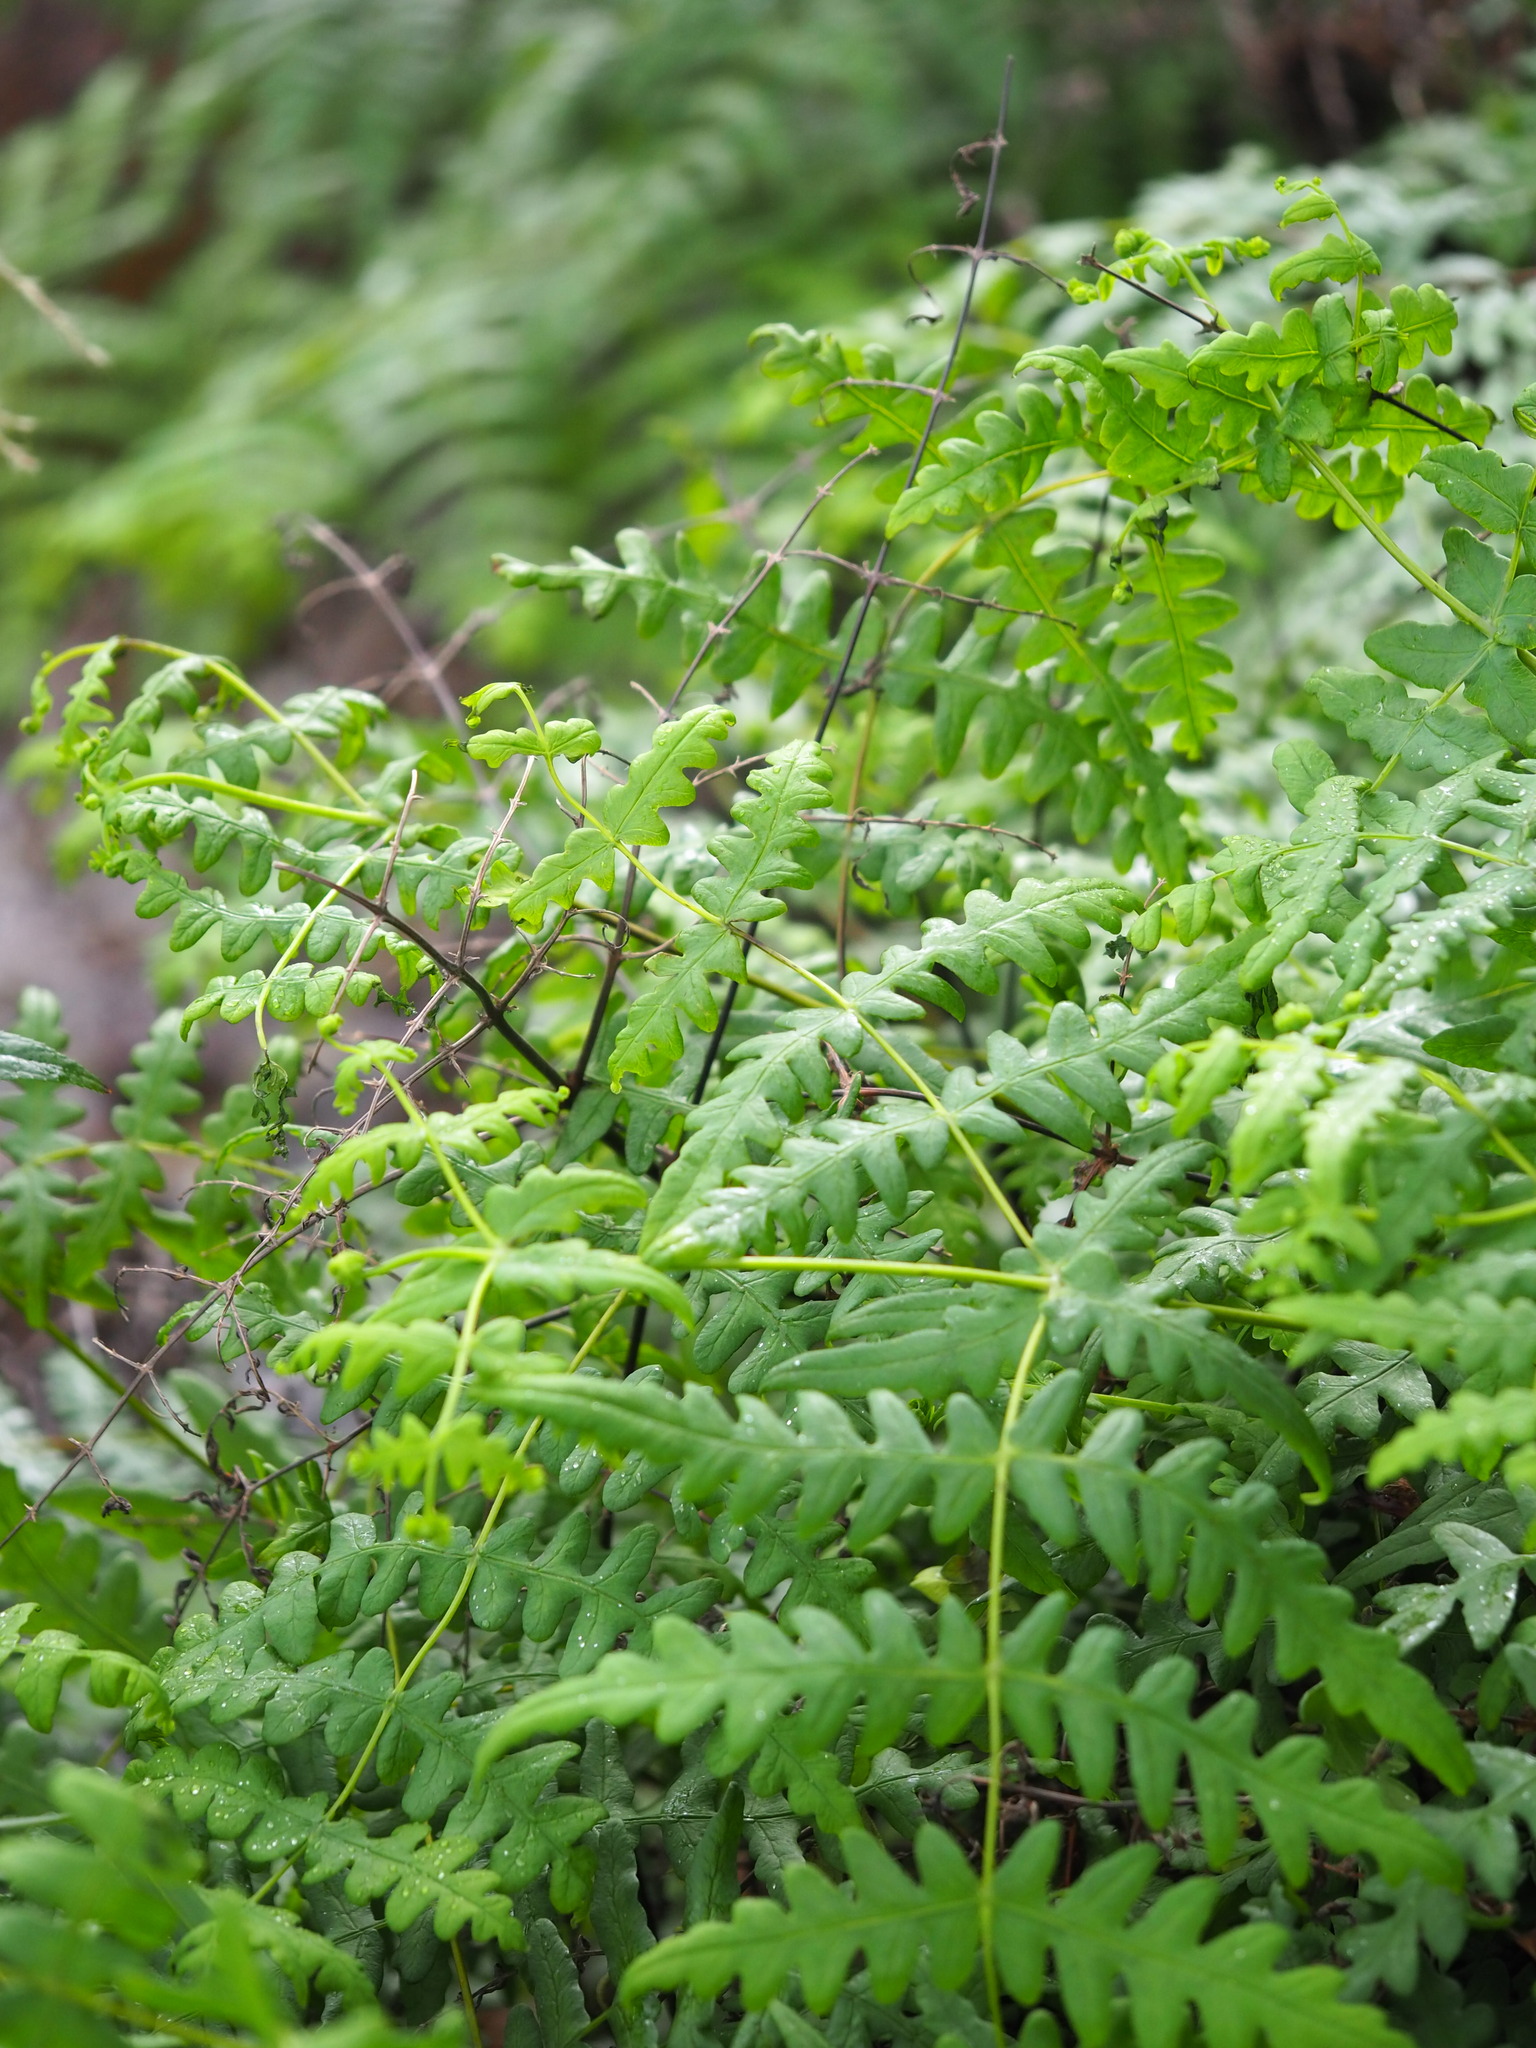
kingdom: Plantae
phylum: Tracheophyta
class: Polypodiopsida
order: Polypodiales
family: Dennstaedtiaceae
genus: Histiopteris
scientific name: Histiopteris incisa
